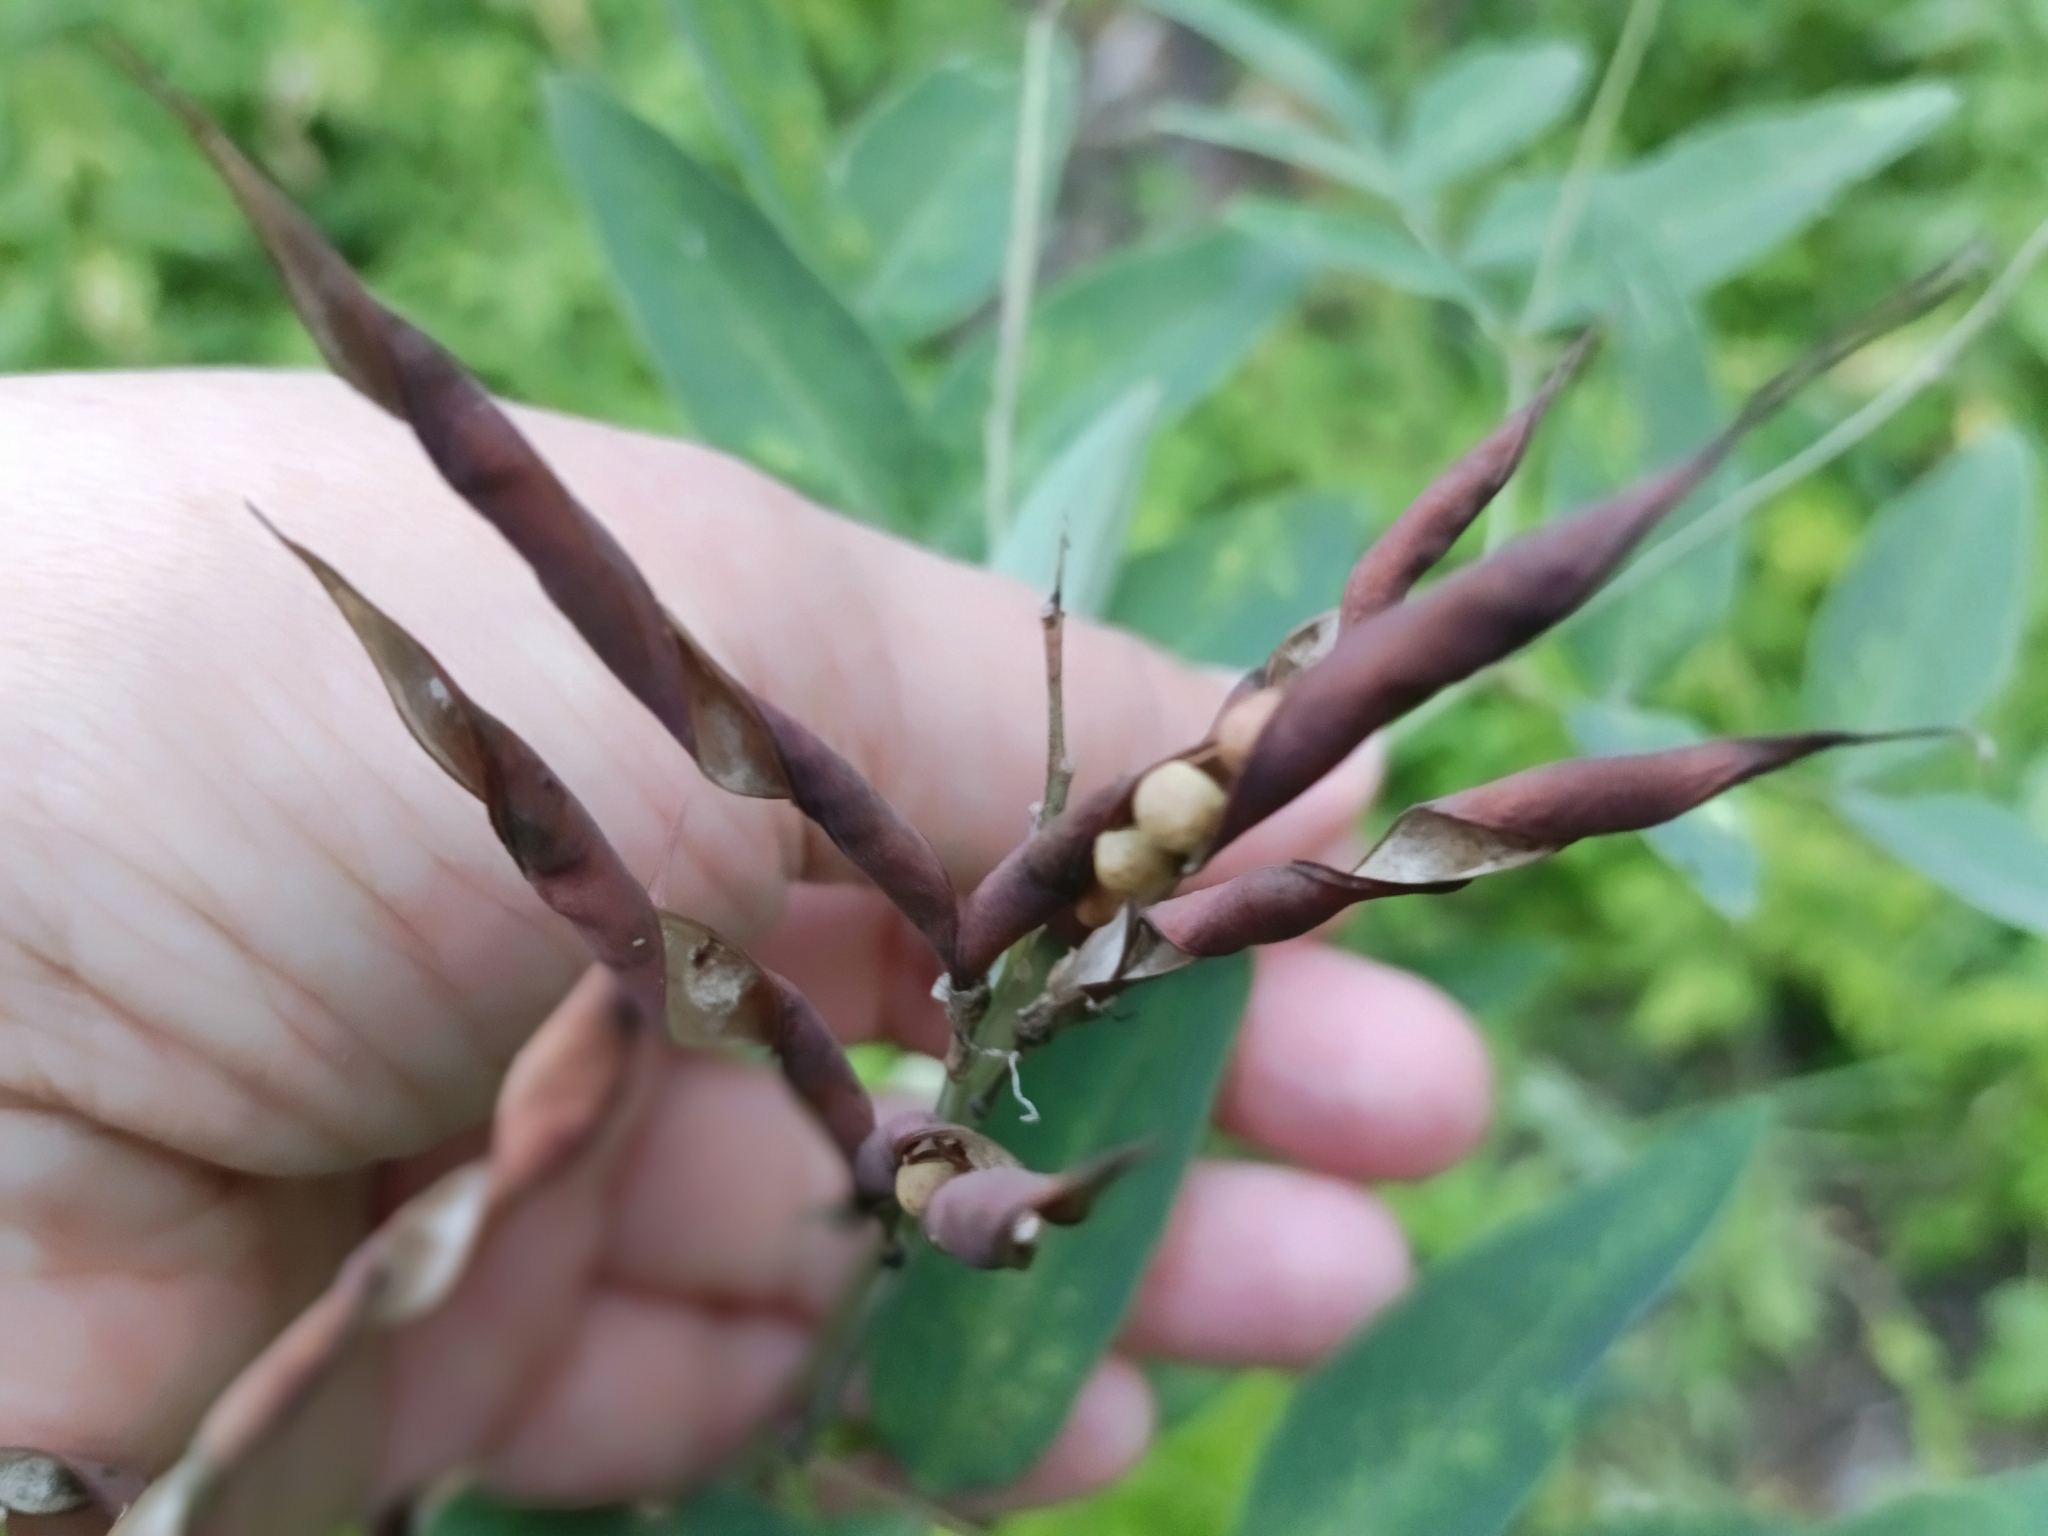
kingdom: Plantae
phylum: Tracheophyta
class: Magnoliopsida
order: Fabales
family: Fabaceae
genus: Lathyrus
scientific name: Lathyrus gmelinii
